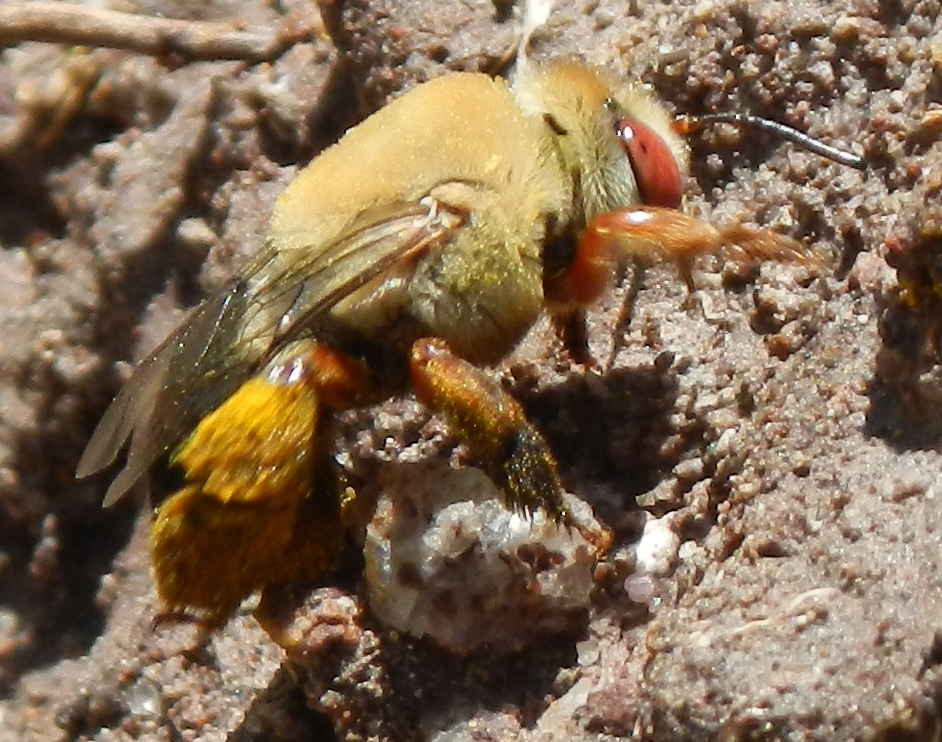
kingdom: Animalia
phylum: Arthropoda
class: Insecta
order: Hymenoptera
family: Apidae
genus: Centris
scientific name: Centris rhodopus
